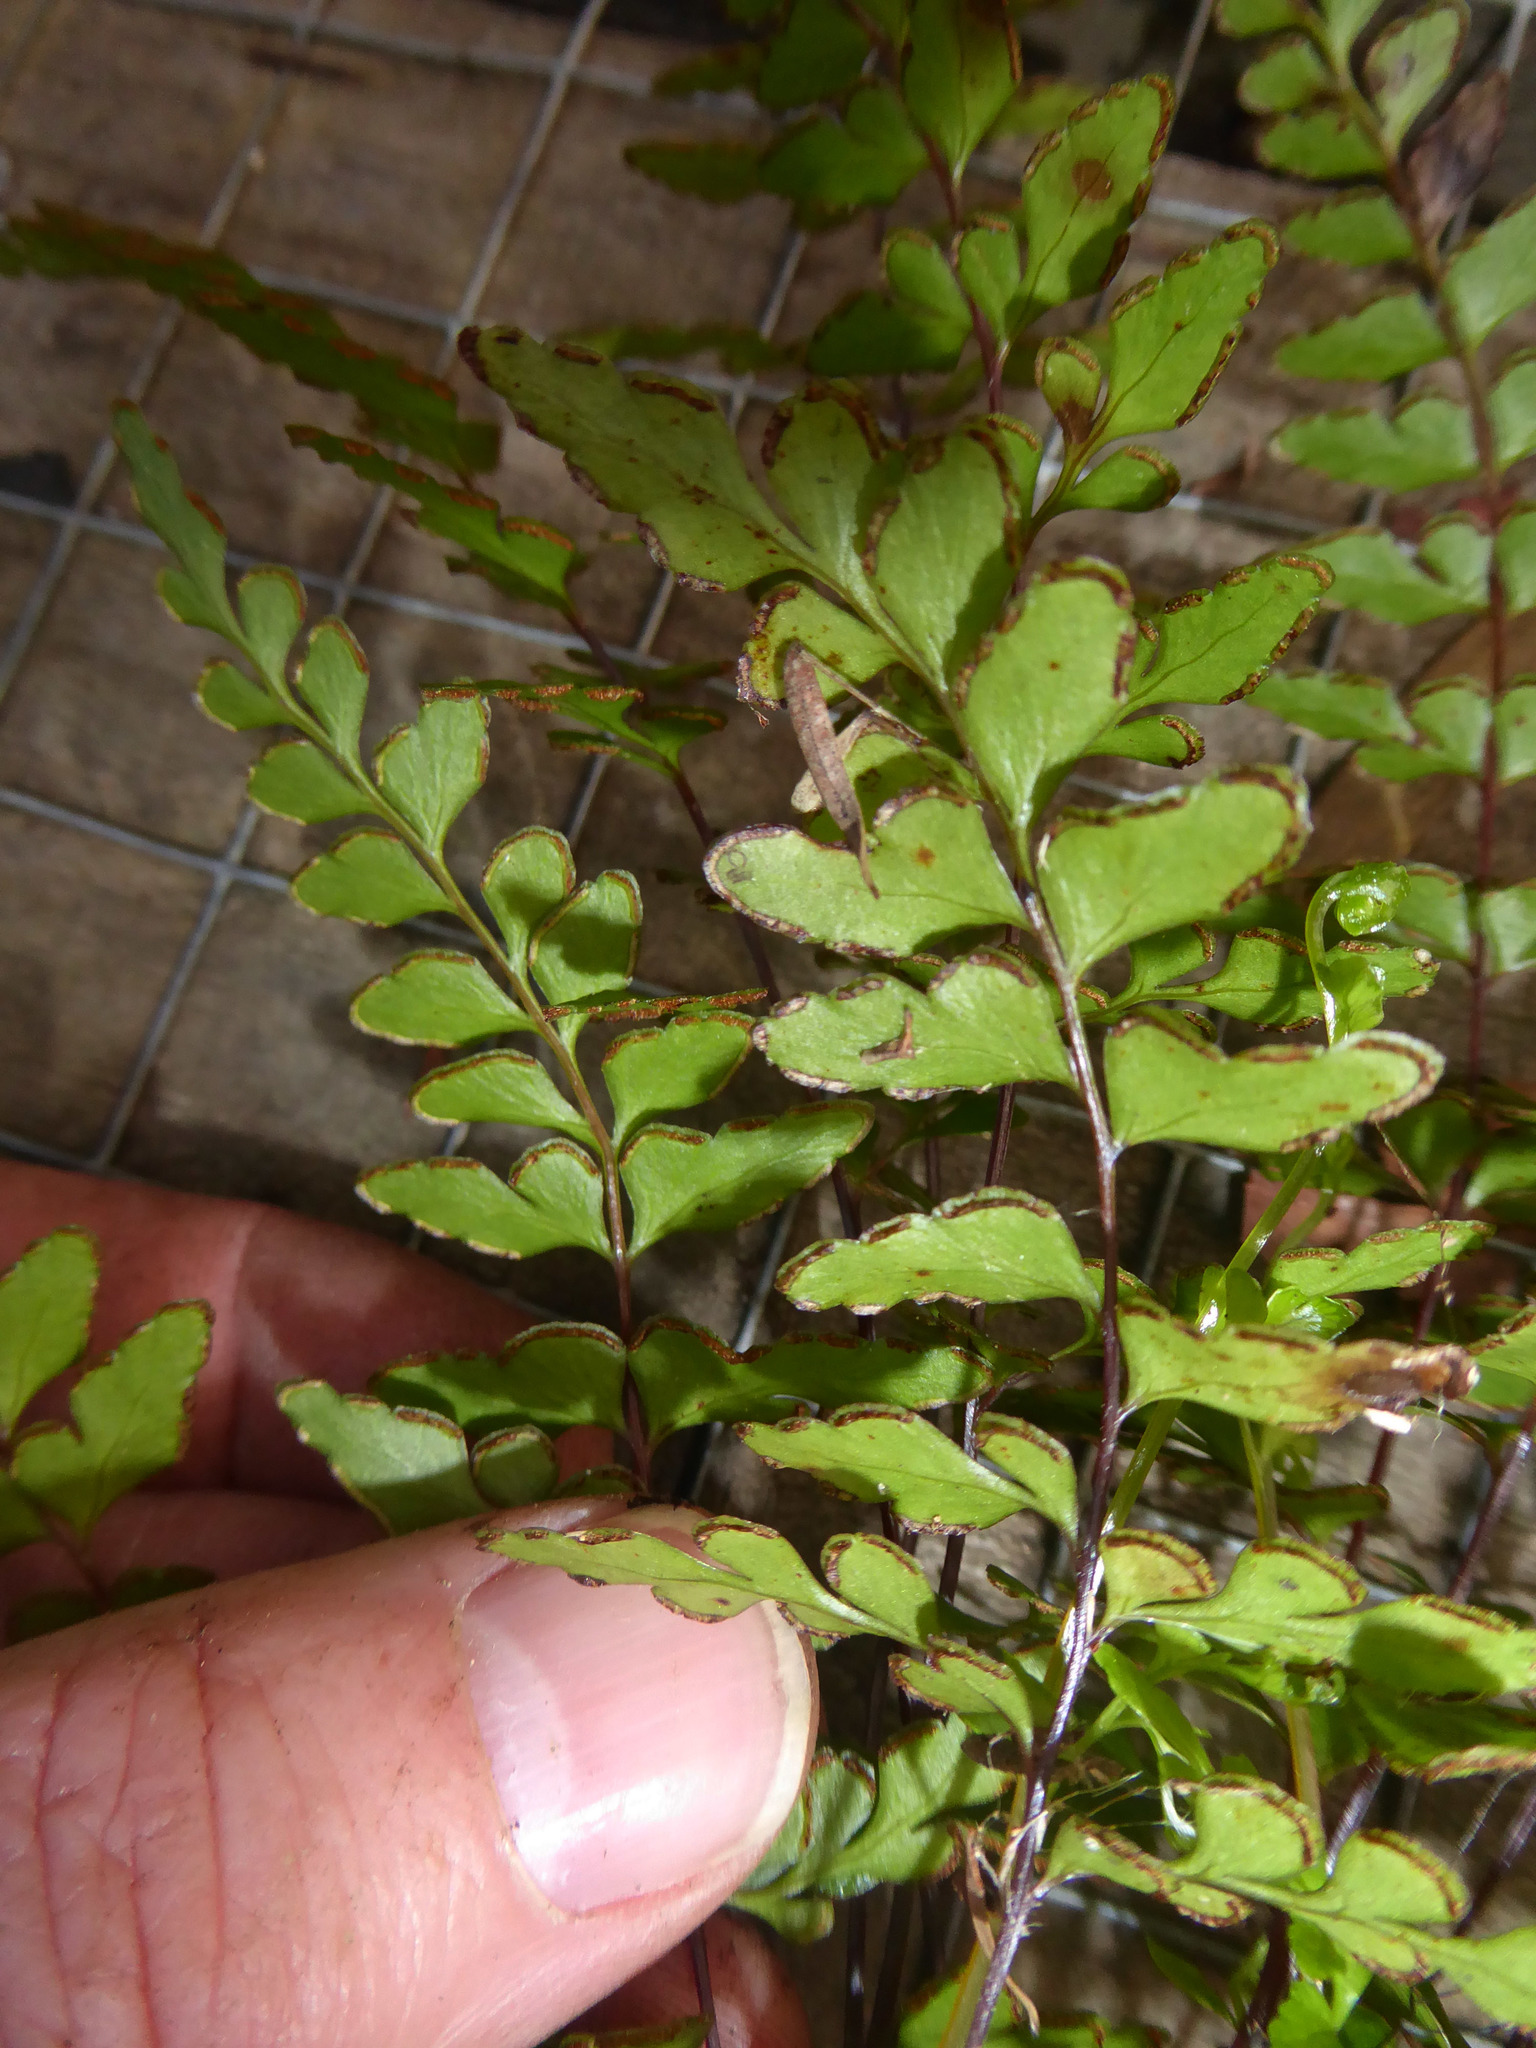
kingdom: Plantae
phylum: Tracheophyta
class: Polypodiopsida
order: Polypodiales
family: Lindsaeaceae
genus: Lindsaea
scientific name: Lindsaea trichomanoides
